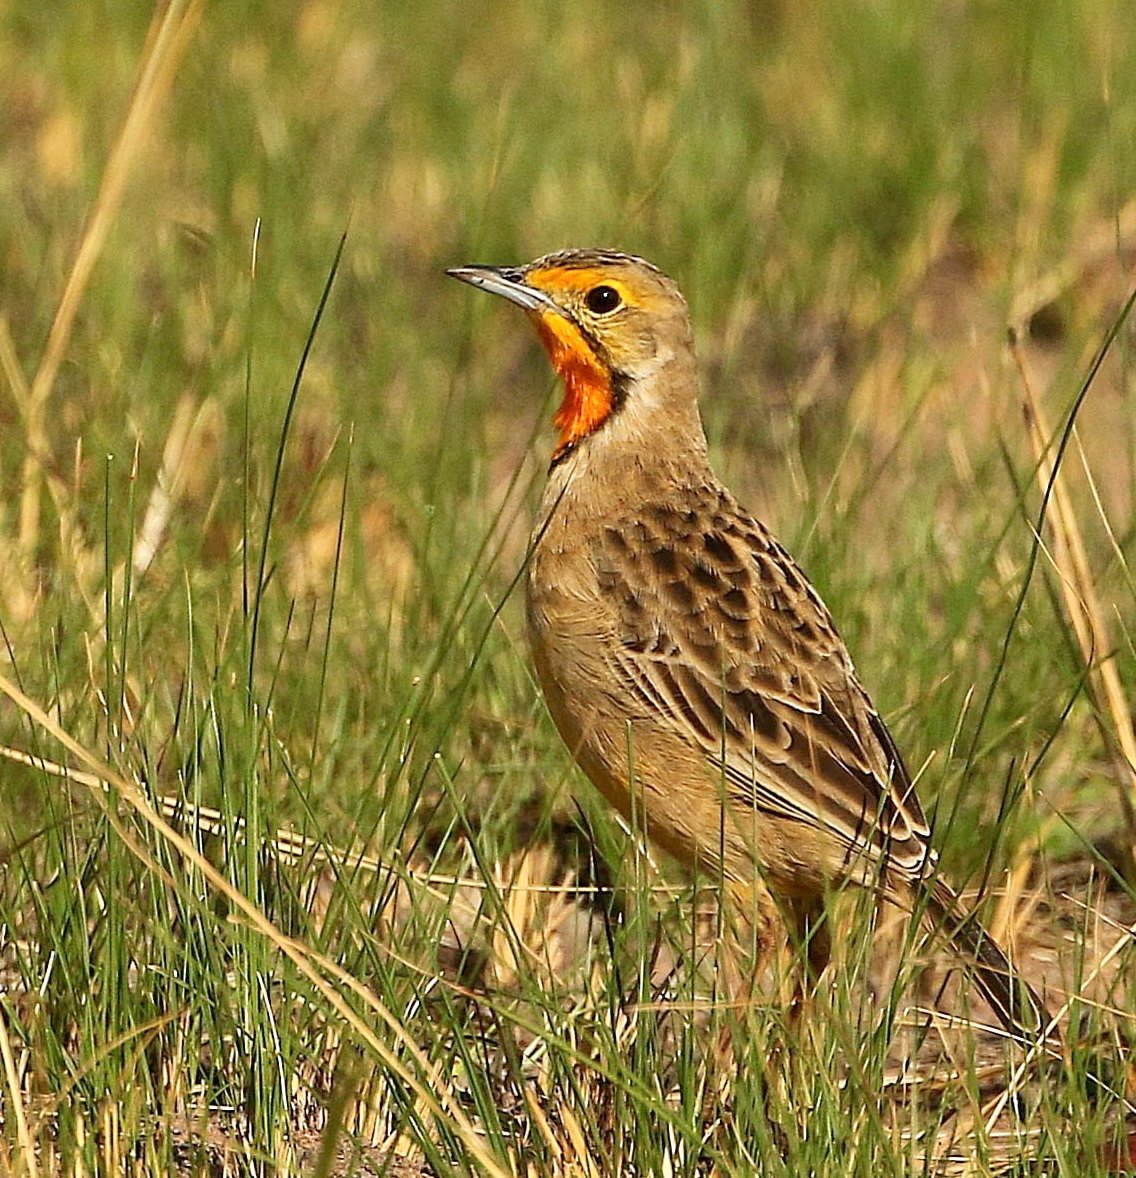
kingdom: Animalia
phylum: Chordata
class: Aves
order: Passeriformes
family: Motacillidae
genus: Macronyx
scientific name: Macronyx capensis
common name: Cape longclaw
